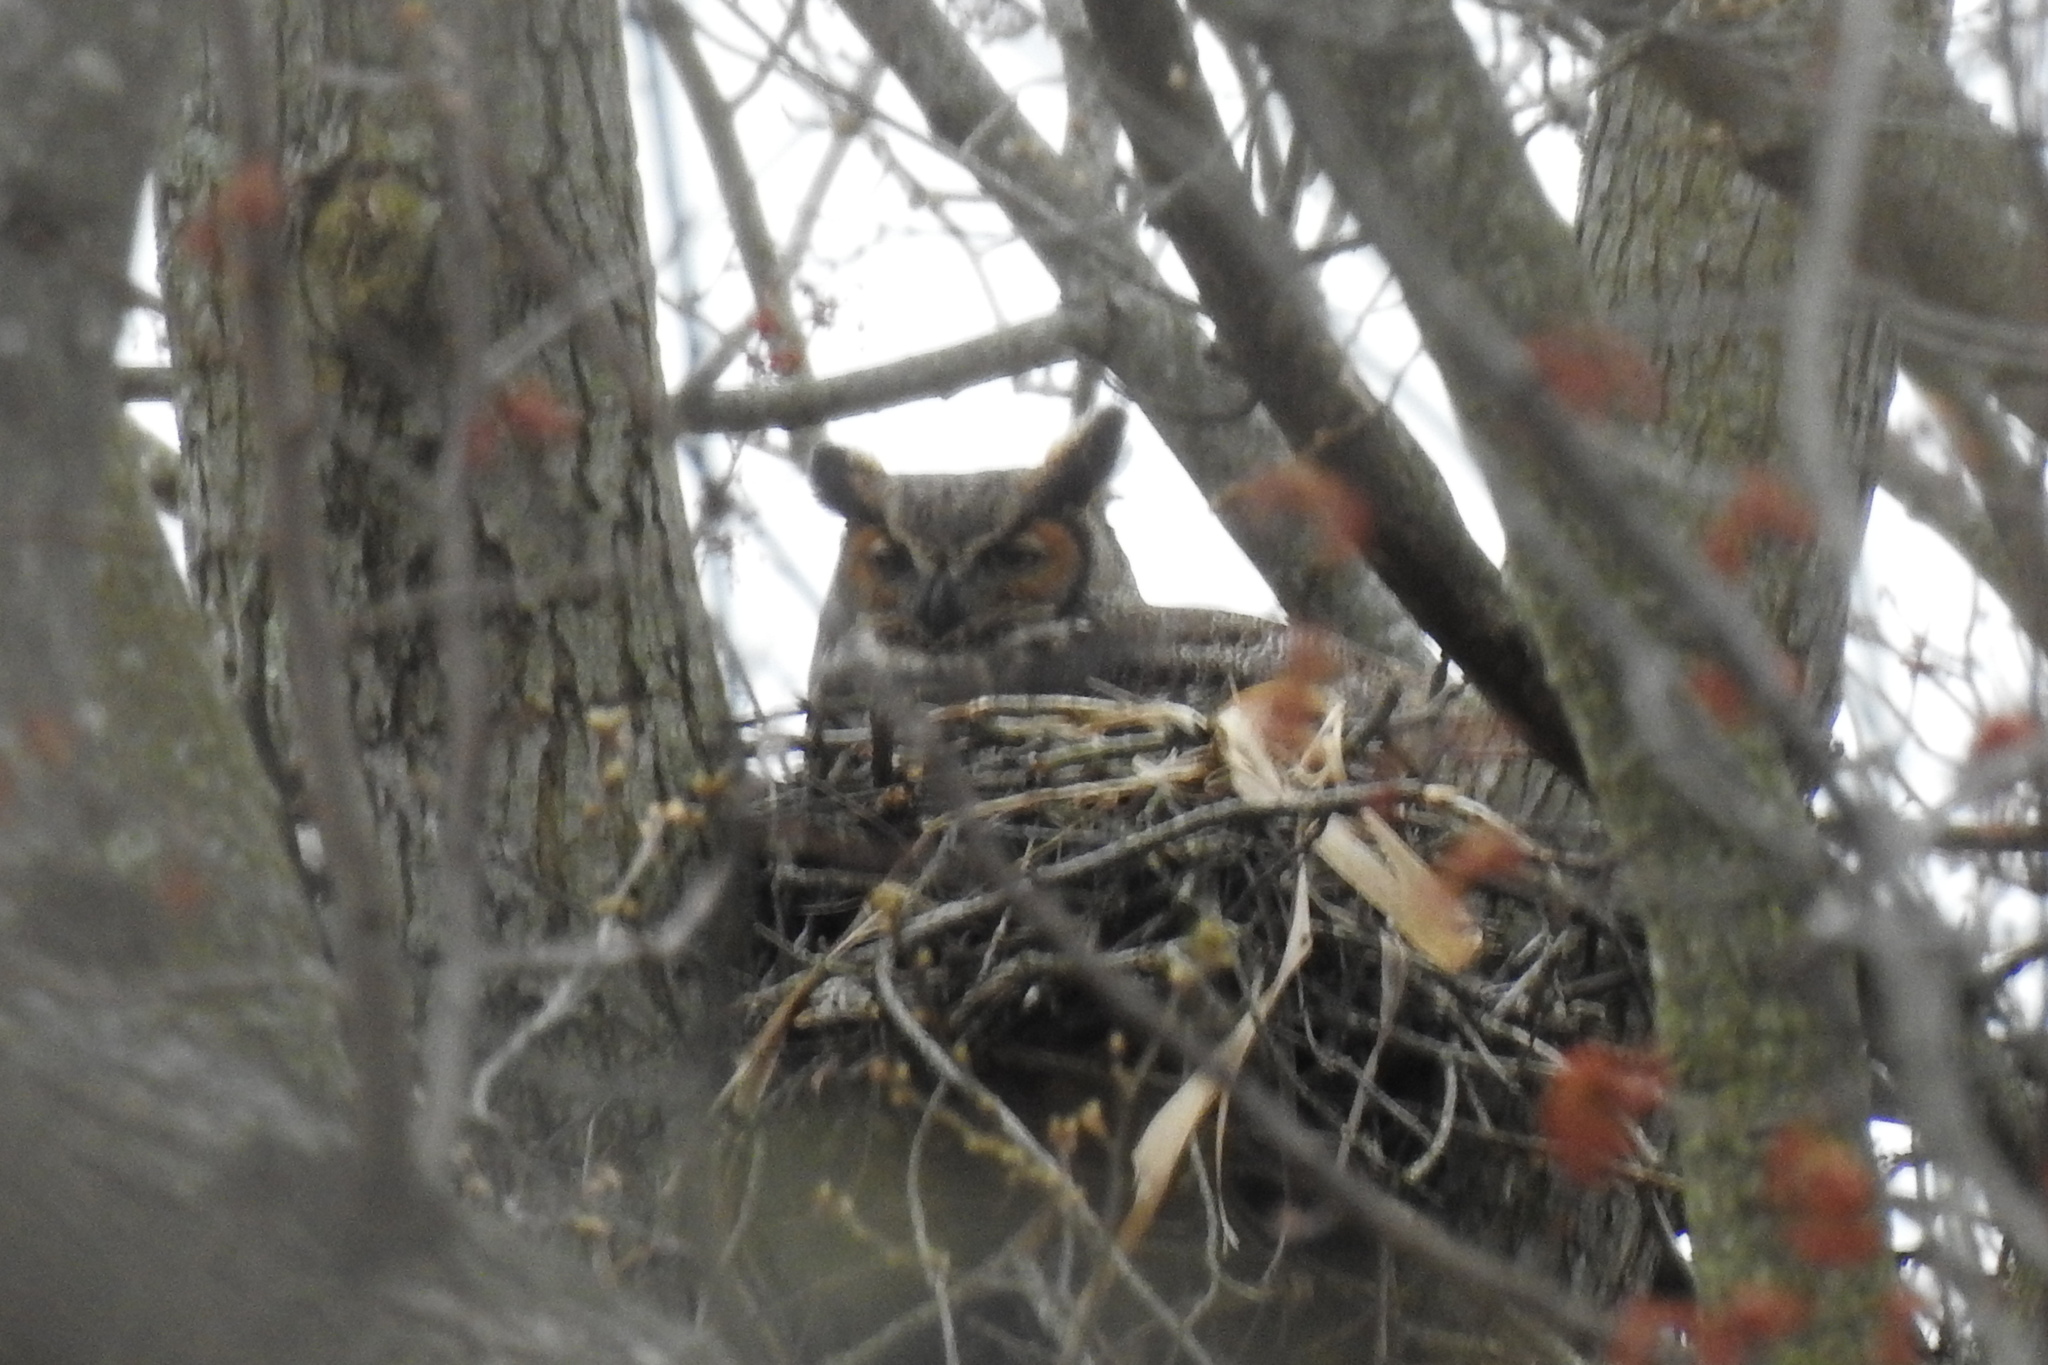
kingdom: Animalia
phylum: Chordata
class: Aves
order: Strigiformes
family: Strigidae
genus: Bubo
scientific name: Bubo virginianus
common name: Great horned owl
